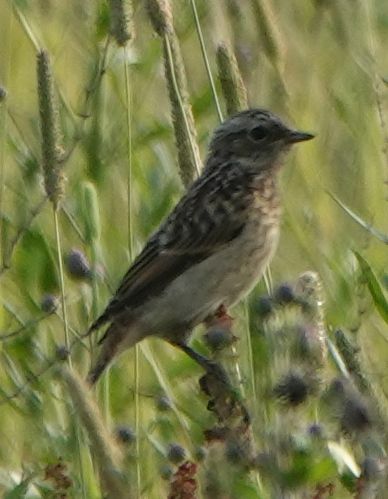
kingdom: Animalia
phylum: Chordata
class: Aves
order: Passeriformes
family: Muscicapidae
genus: Saxicola
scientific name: Saxicola rubetra
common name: Whinchat
